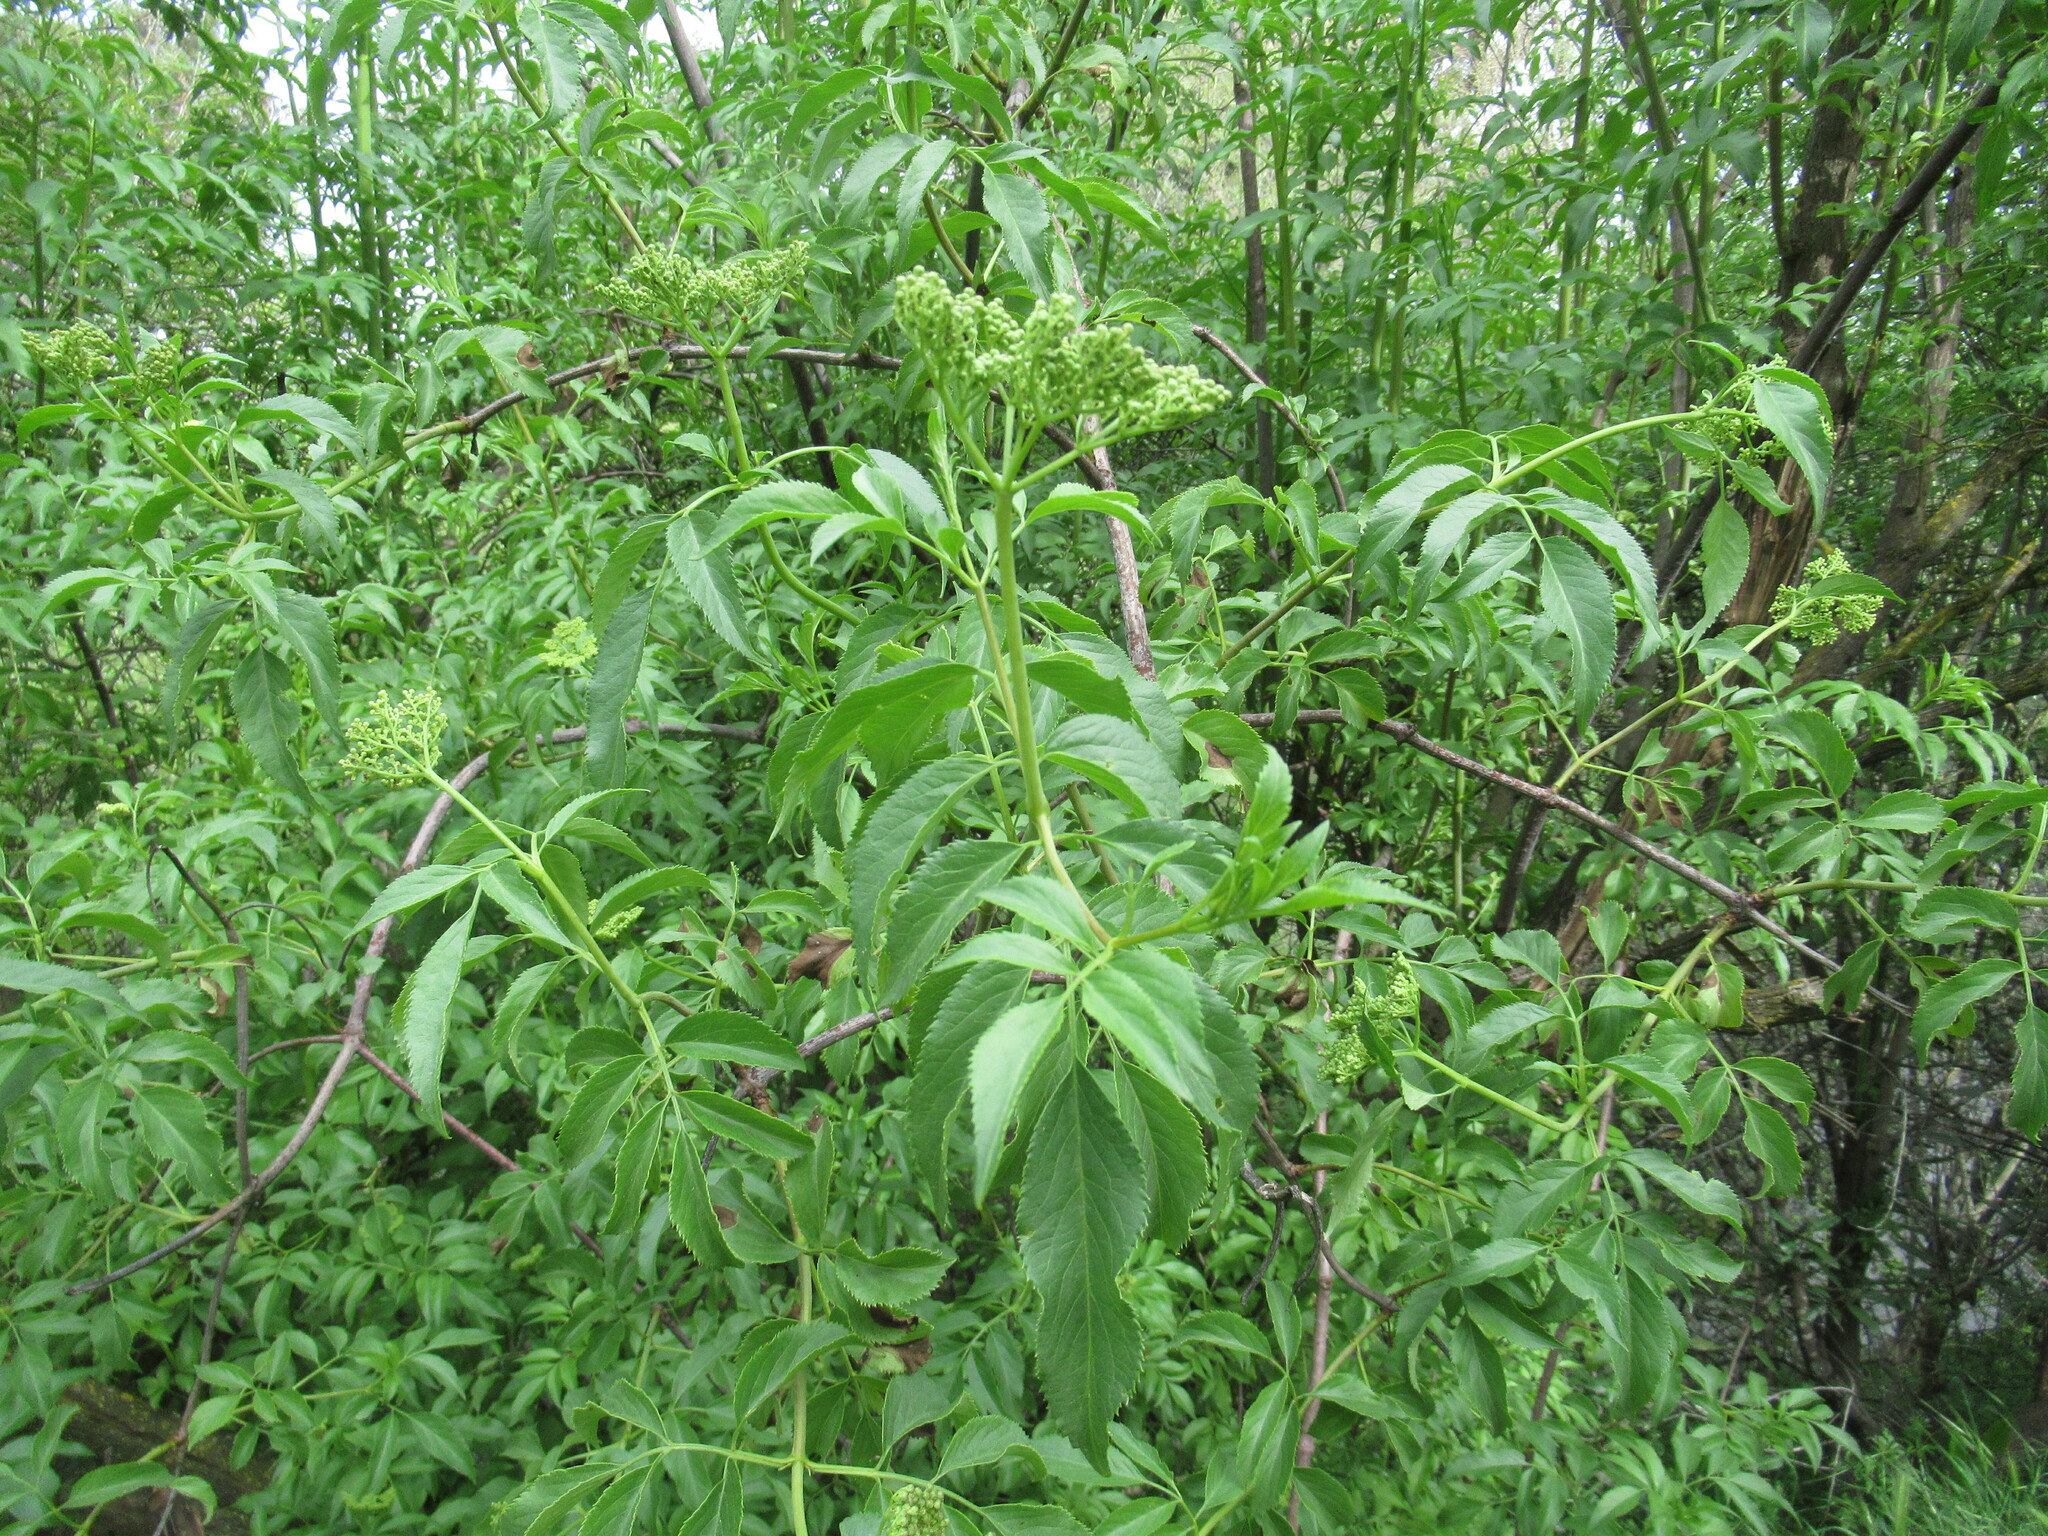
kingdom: Plantae
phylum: Tracheophyta
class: Magnoliopsida
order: Dipsacales
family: Viburnaceae
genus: Sambucus
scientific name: Sambucus cerulea
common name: Blue elder
